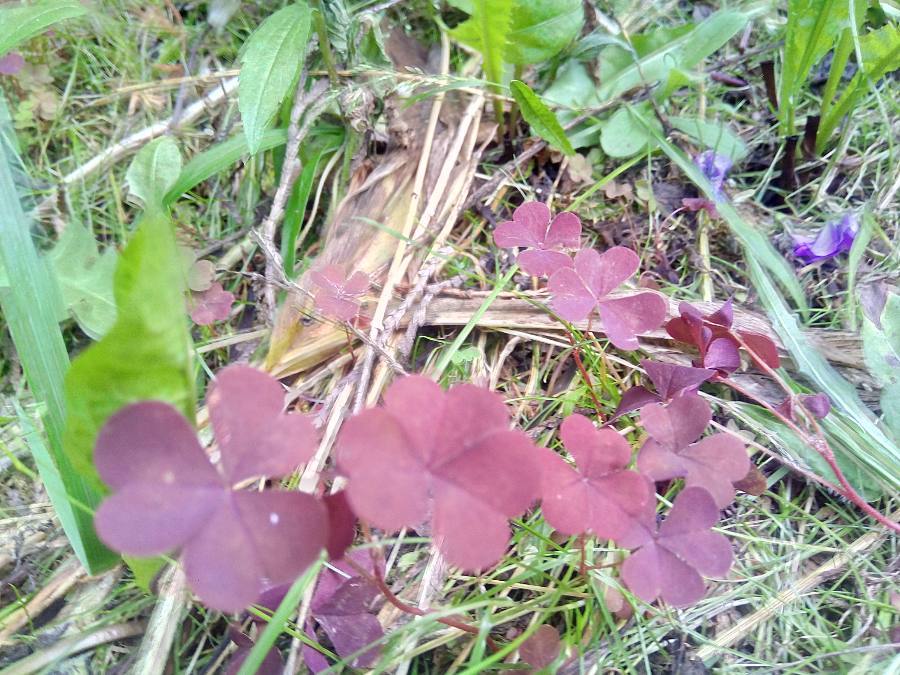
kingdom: Plantae
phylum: Tracheophyta
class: Magnoliopsida
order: Oxalidales
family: Oxalidaceae
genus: Oxalis
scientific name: Oxalis stricta
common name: Upright yellow-sorrel
